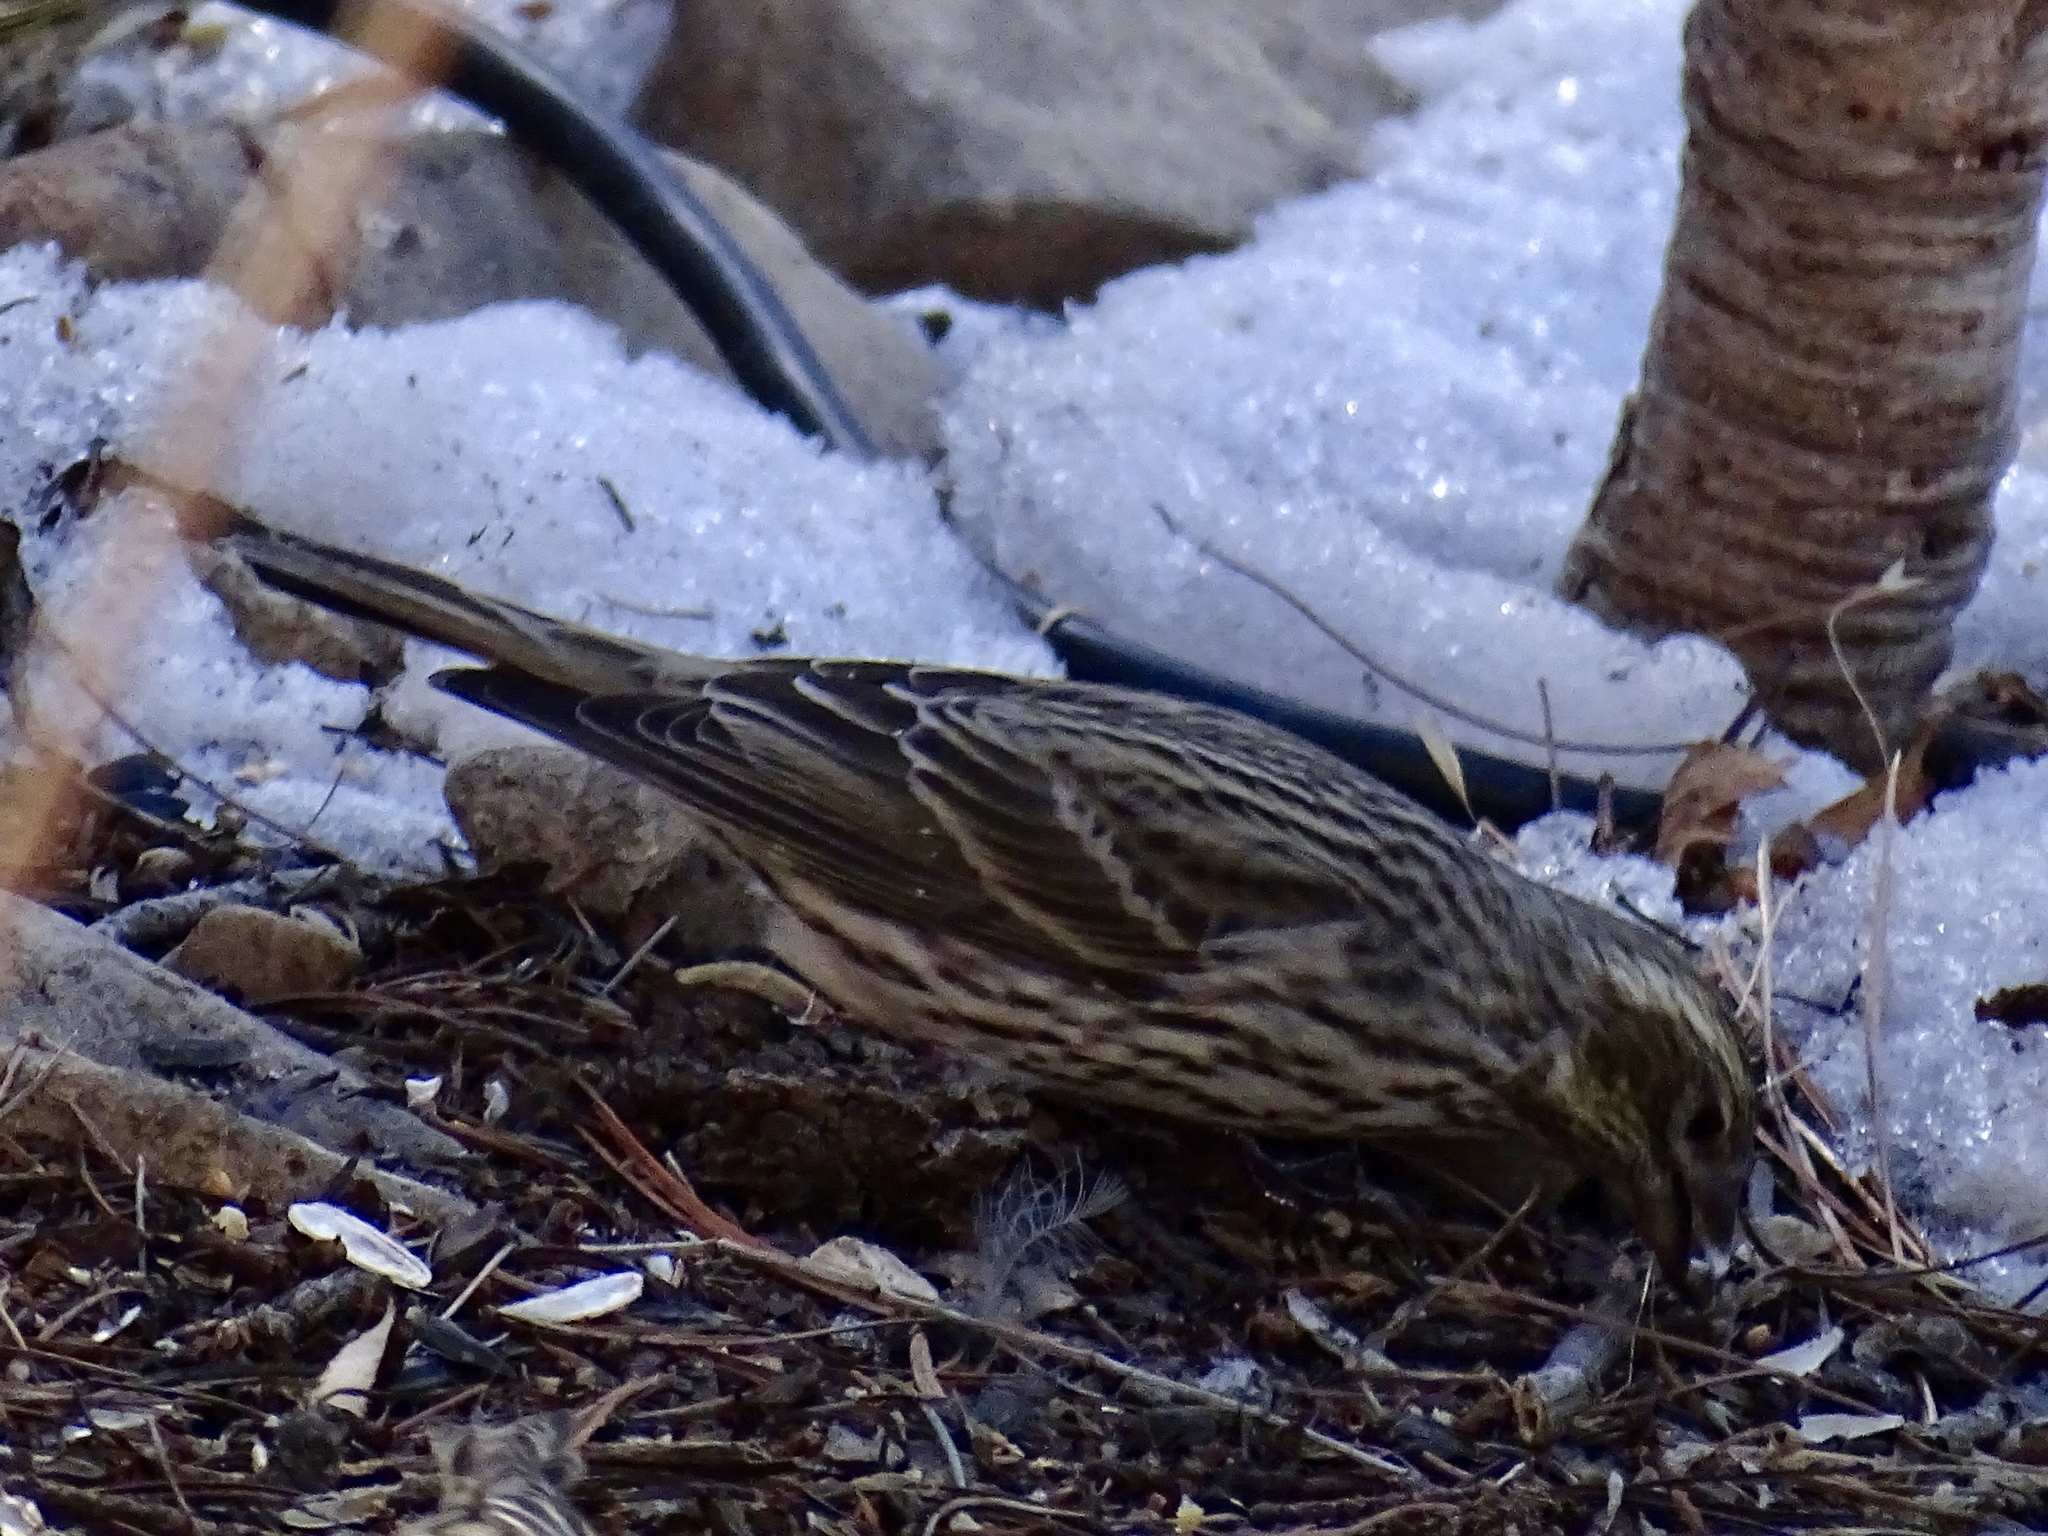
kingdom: Animalia
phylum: Chordata
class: Aves
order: Passeriformes
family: Fringillidae
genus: Haemorhous
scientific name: Haemorhous cassinii
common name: Cassin's finch
